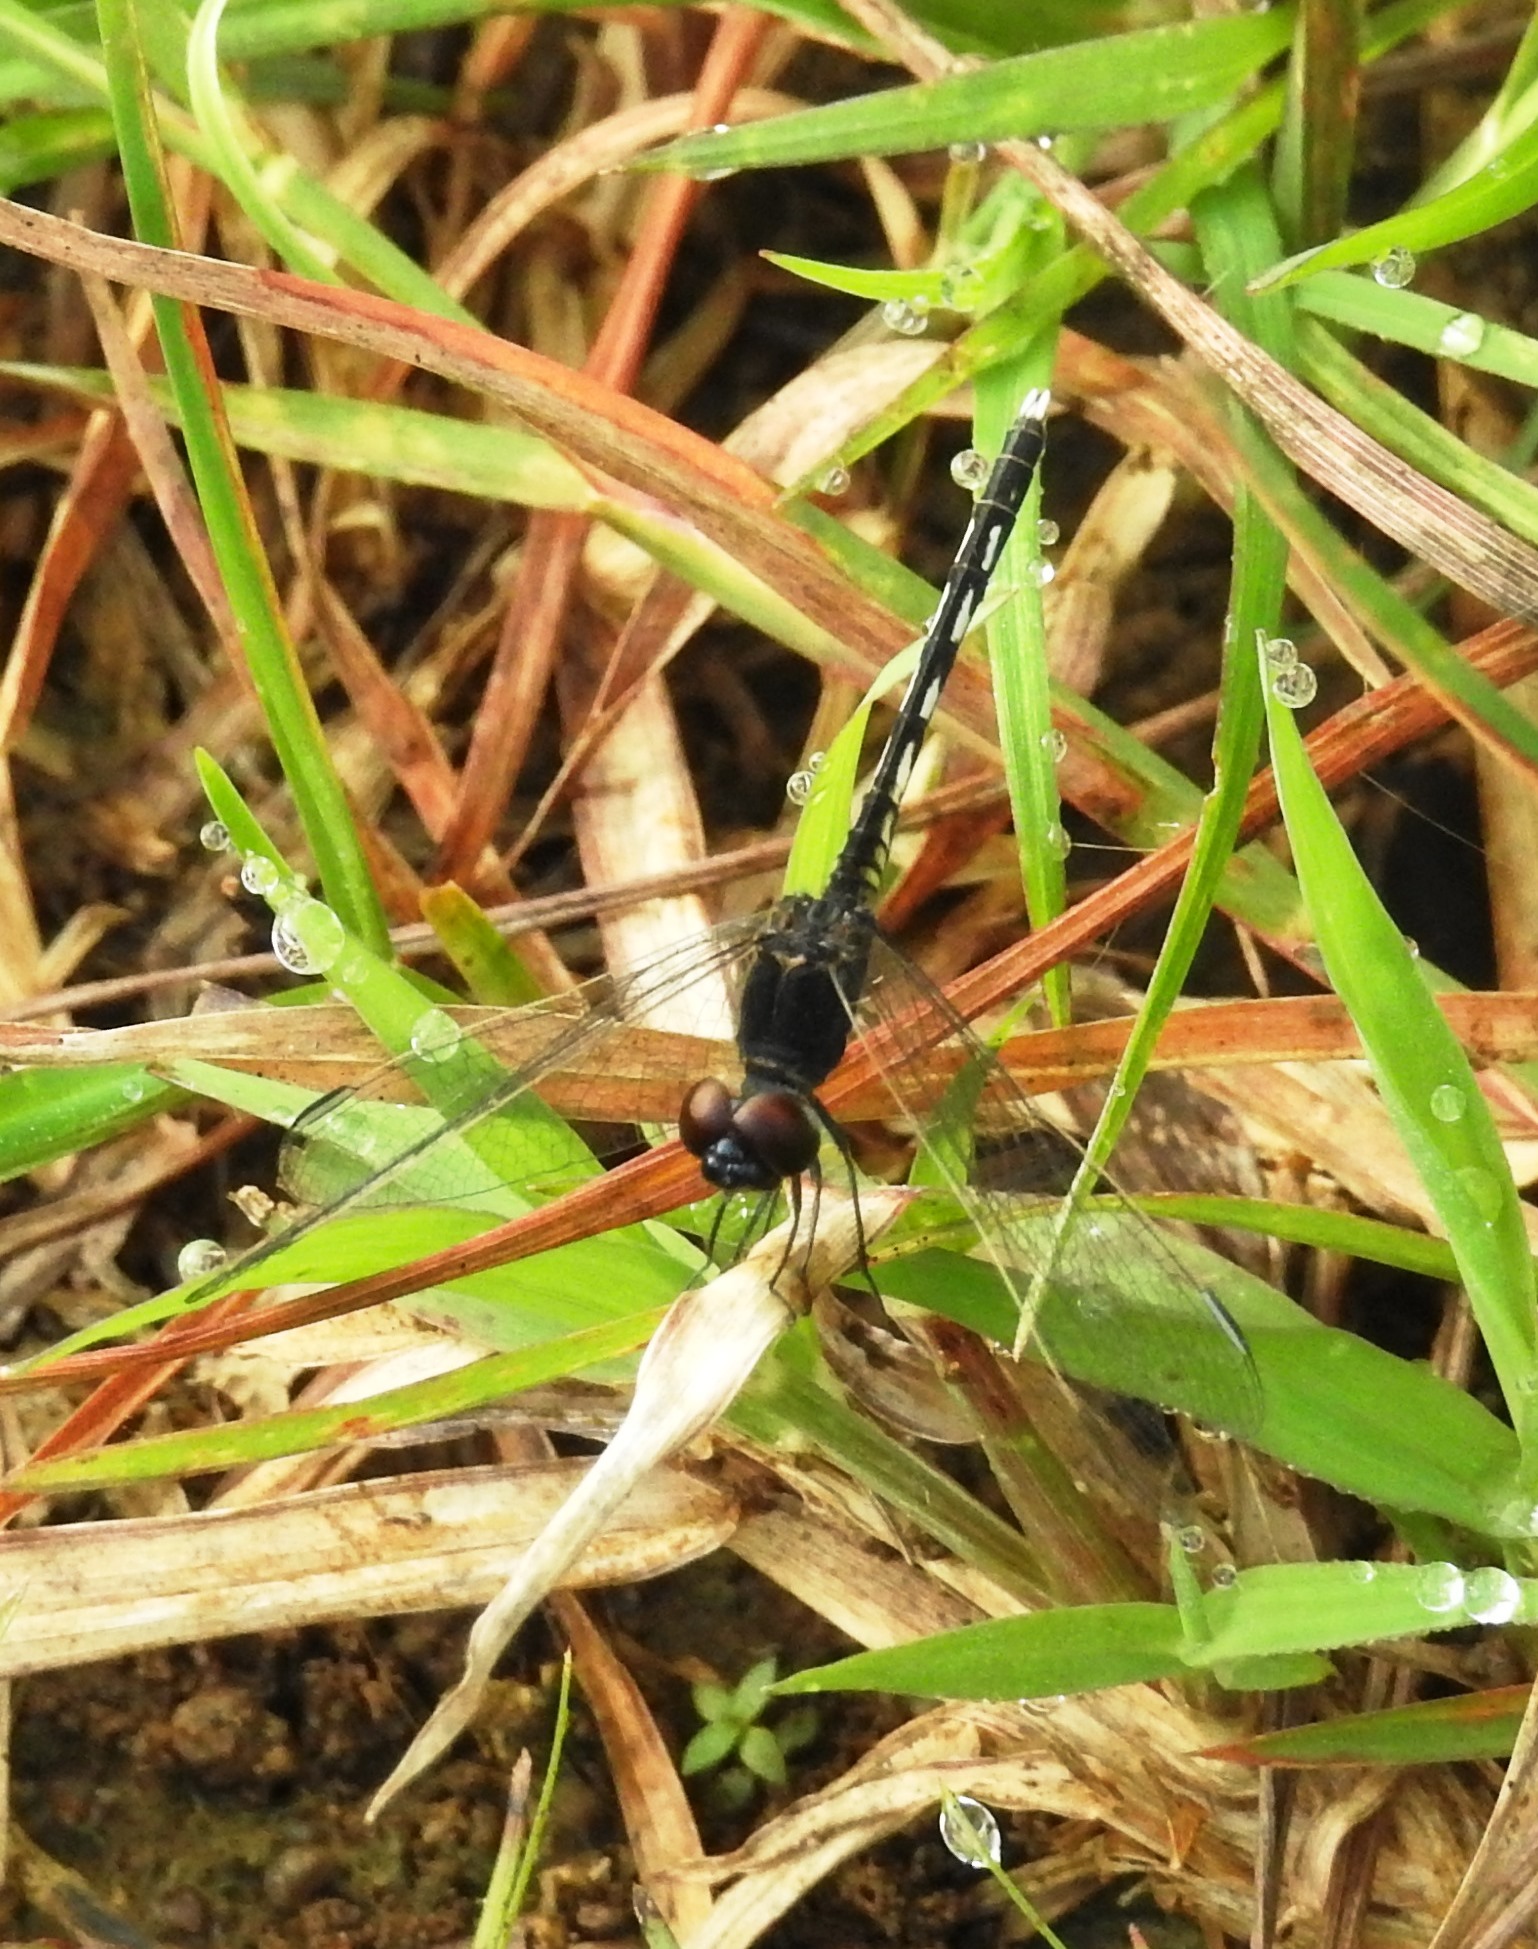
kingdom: Animalia
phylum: Arthropoda
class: Insecta
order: Odonata
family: Libellulidae
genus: Diplacodes
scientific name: Diplacodes lefebvrii
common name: Black percher
